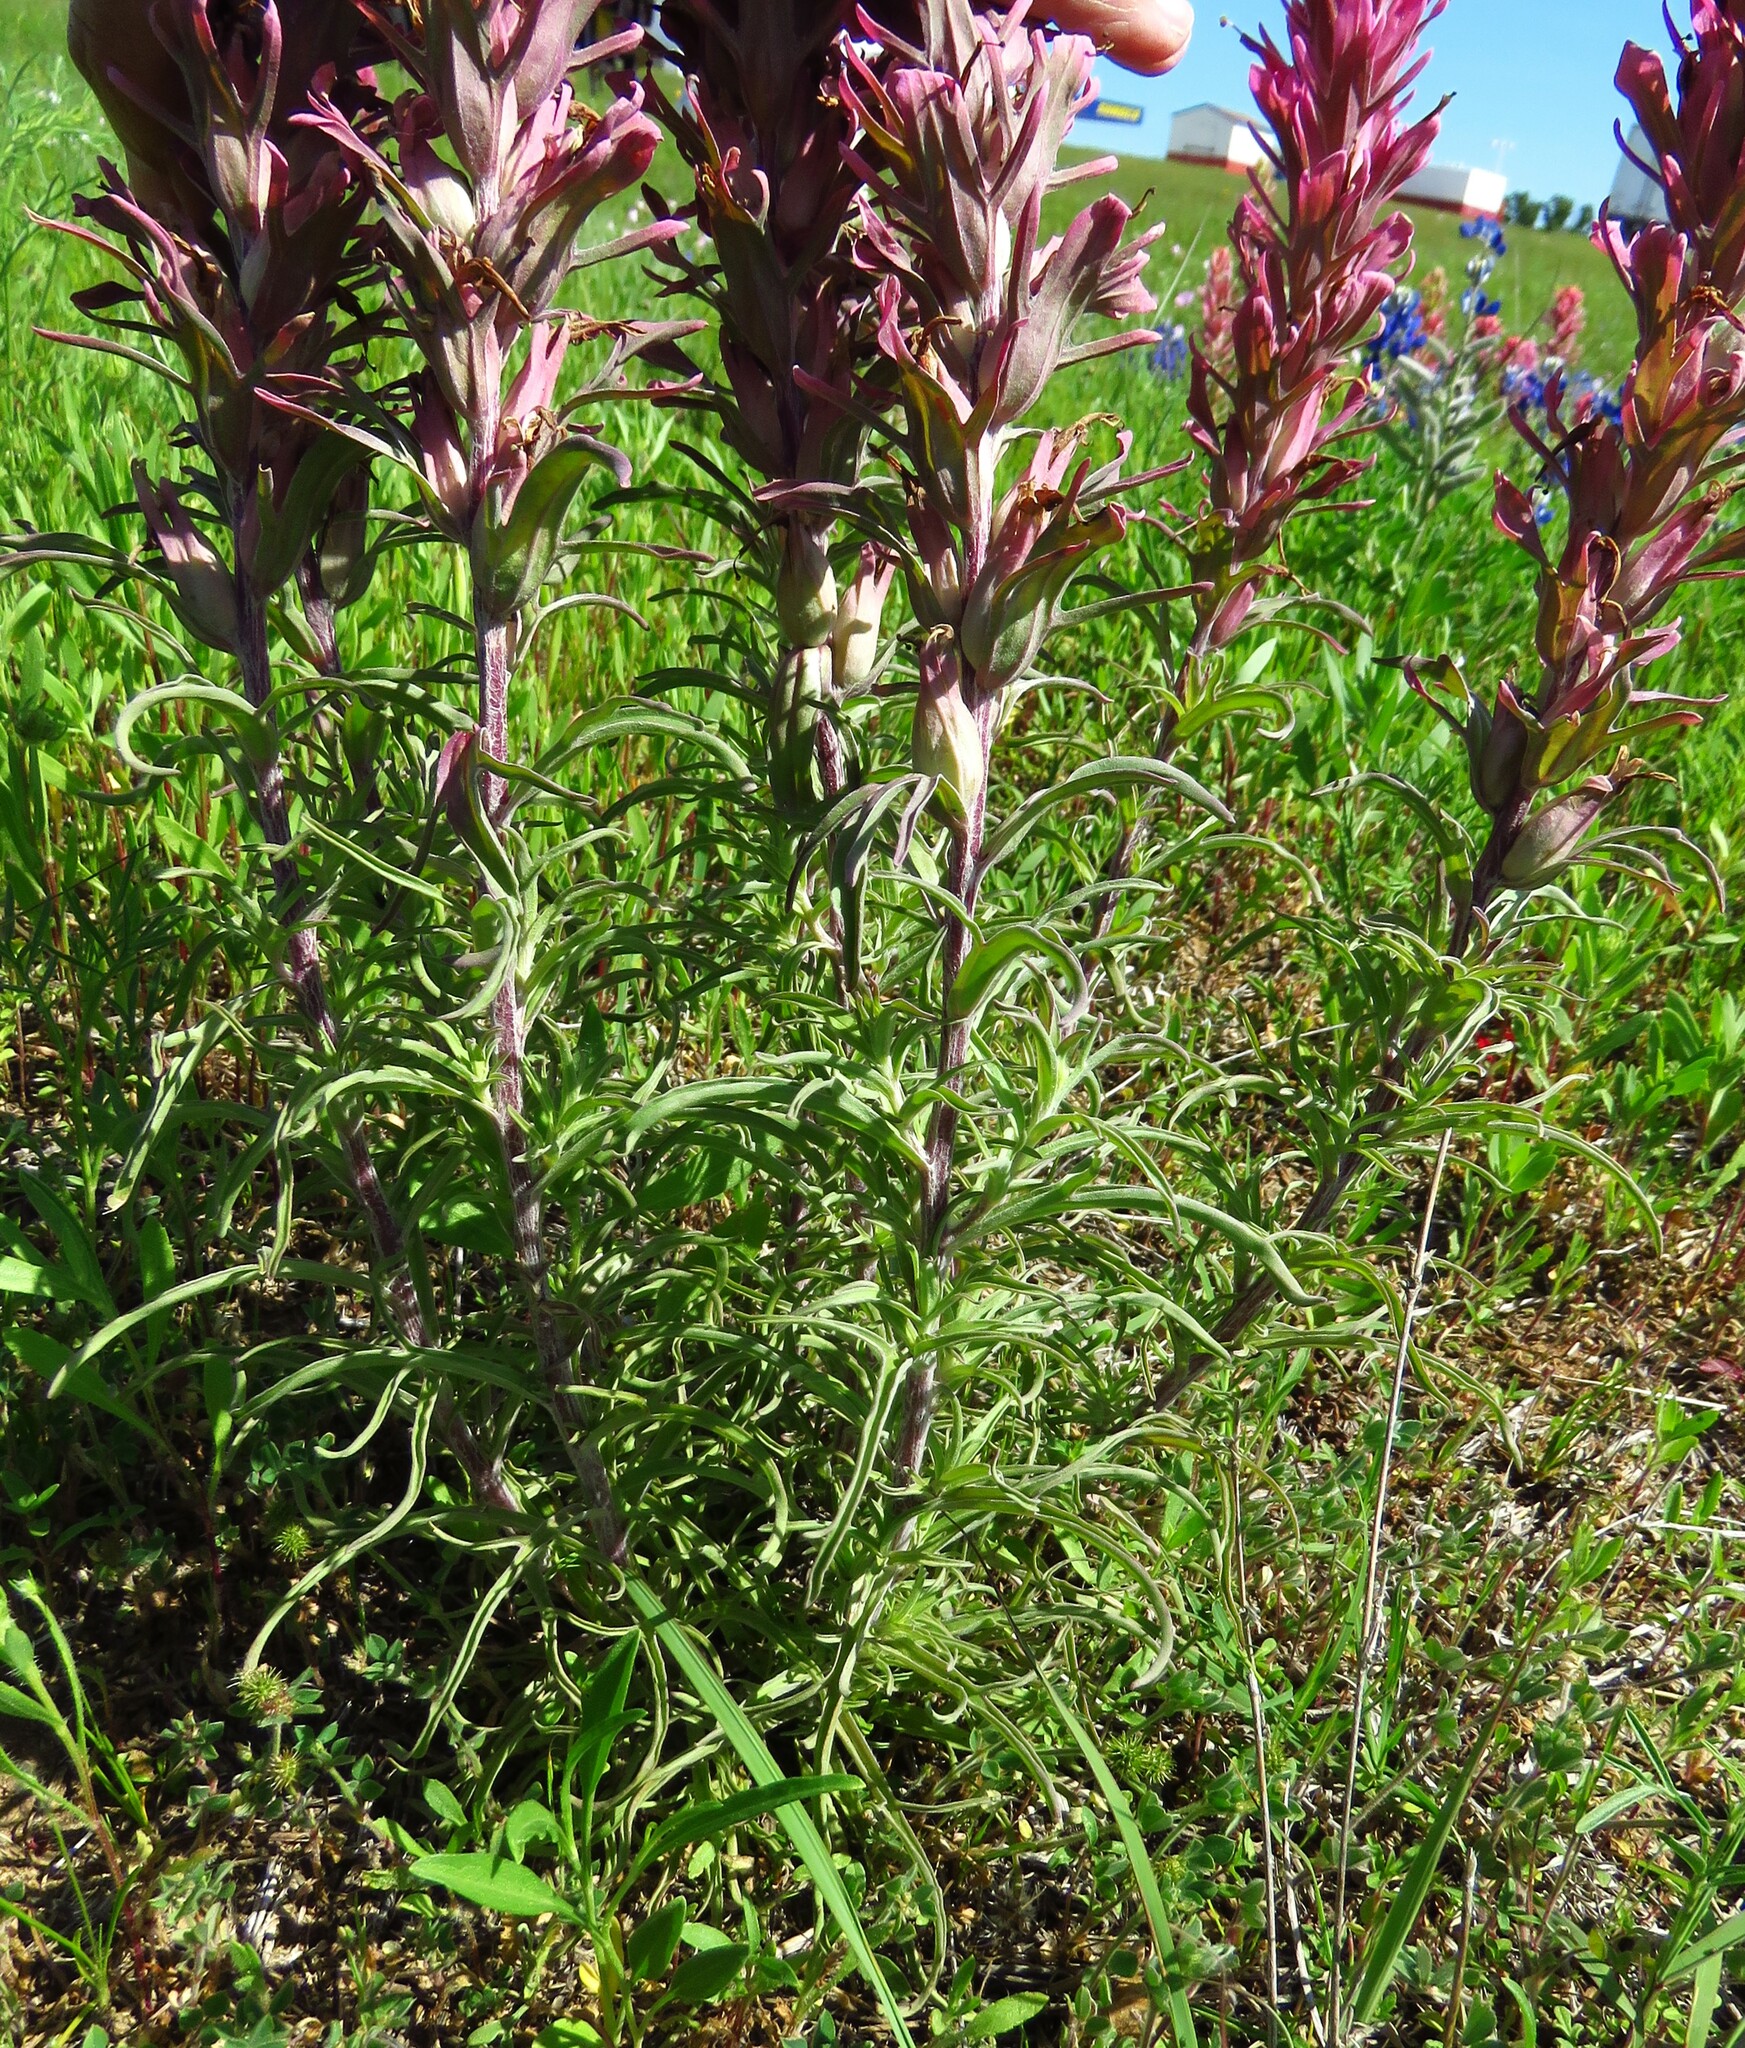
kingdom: Plantae
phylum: Tracheophyta
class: Magnoliopsida
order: Lamiales
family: Orobanchaceae
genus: Castilleja
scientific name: Castilleja purpurea
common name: Plains paintbrush
